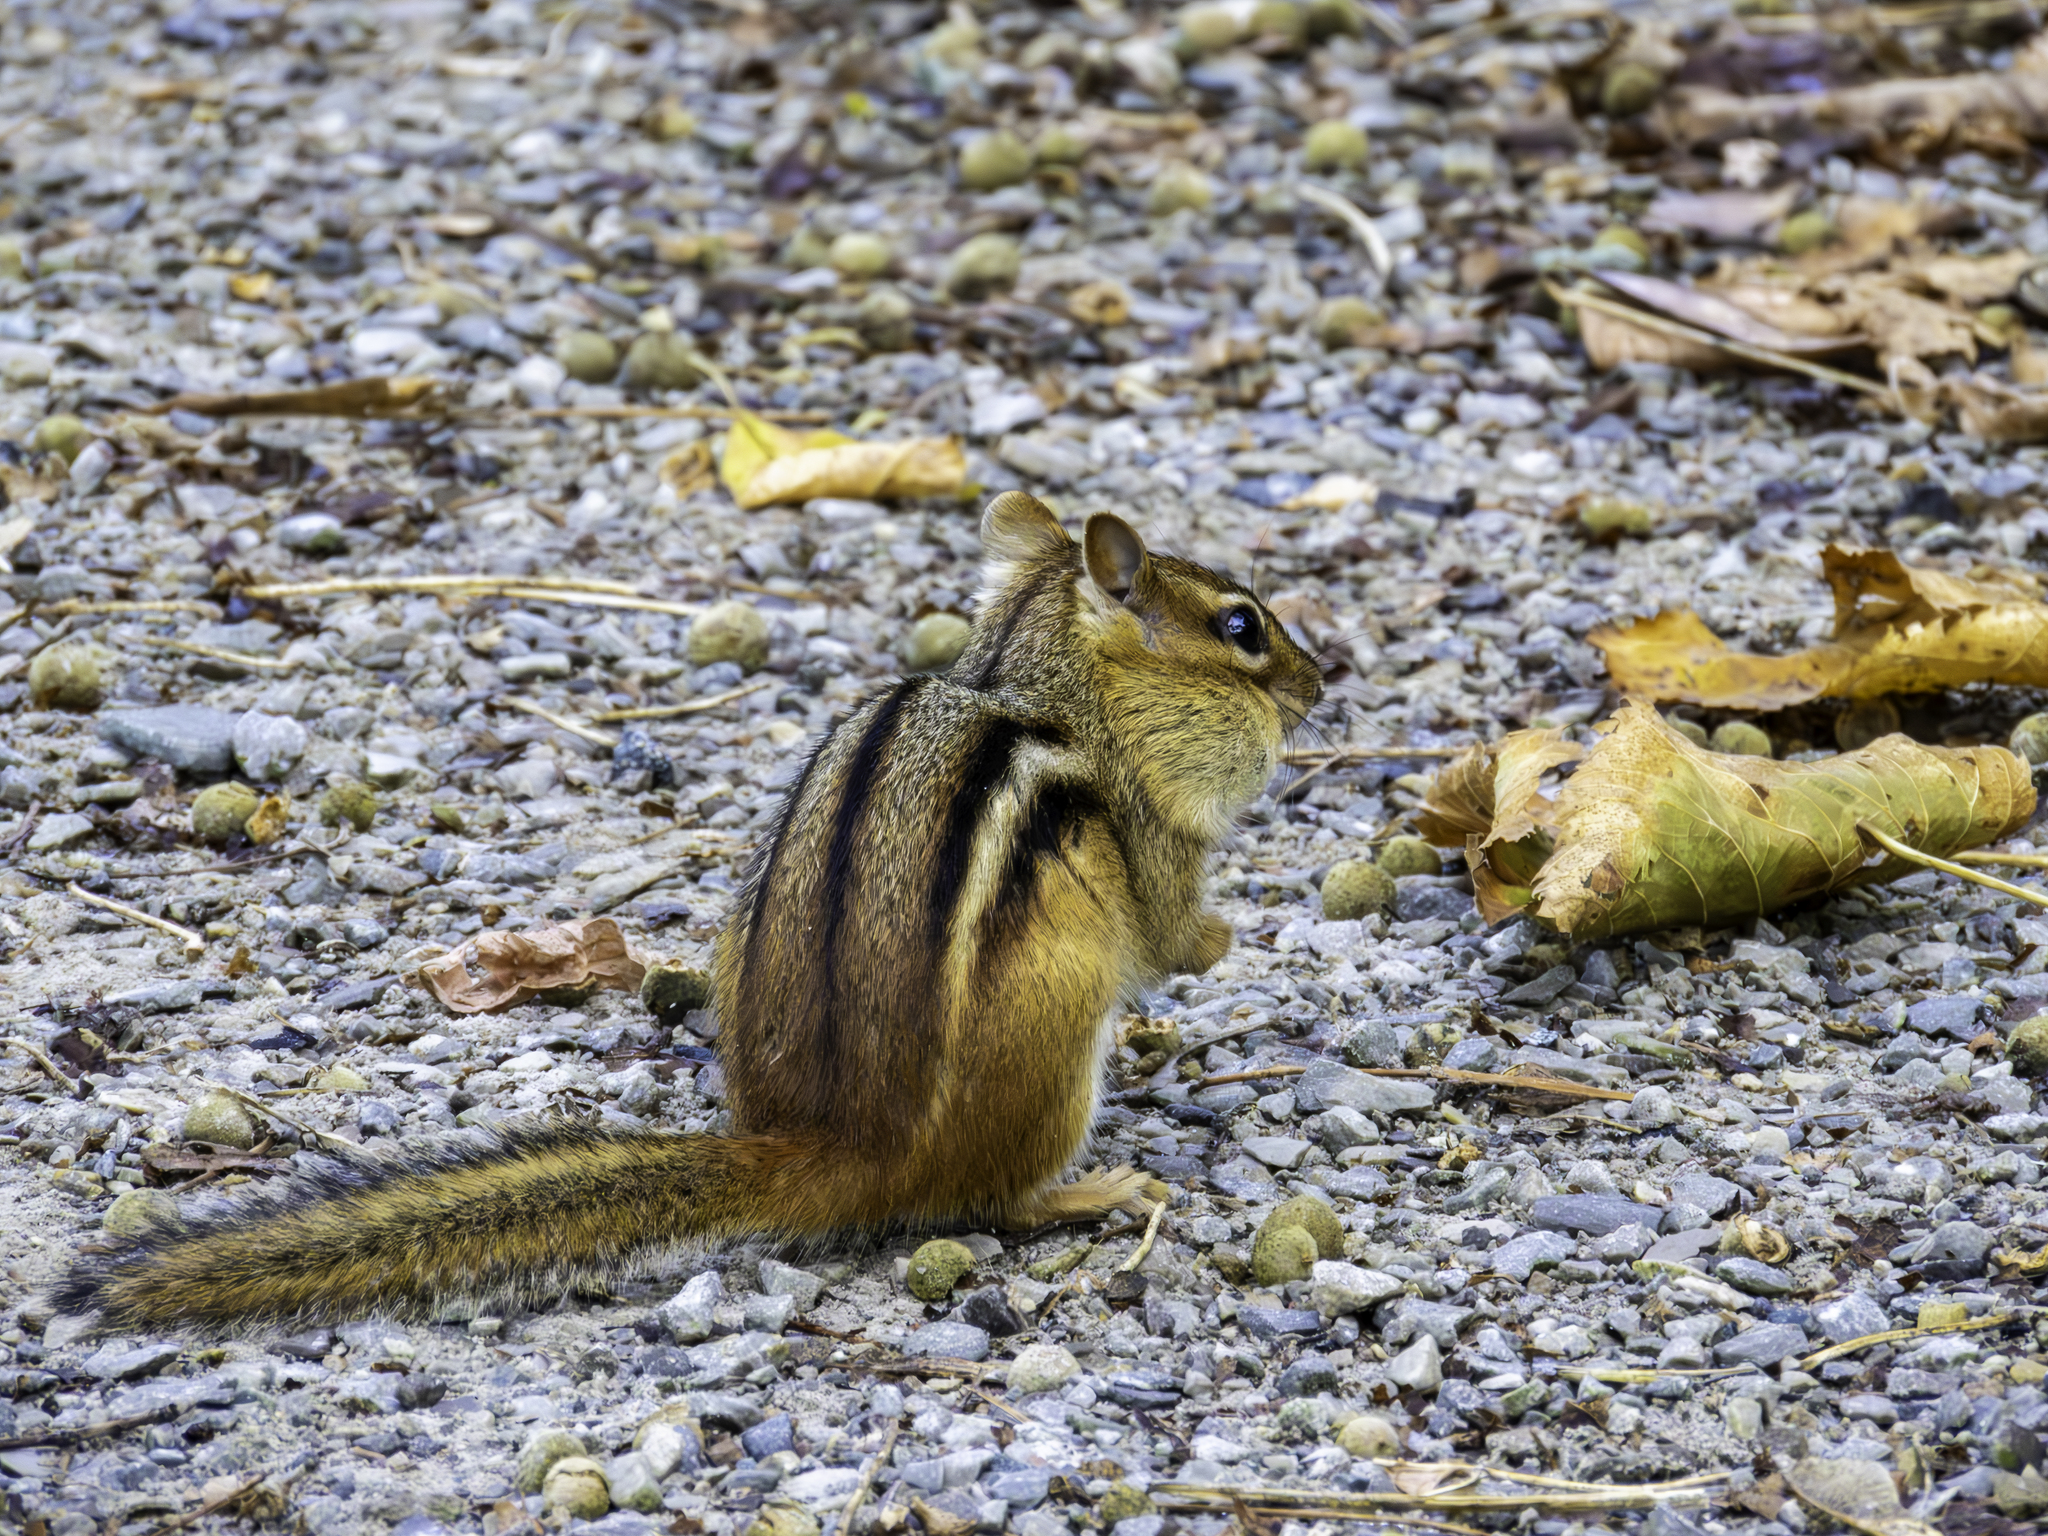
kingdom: Animalia
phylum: Chordata
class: Mammalia
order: Rodentia
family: Sciuridae
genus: Tamias
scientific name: Tamias striatus
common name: Eastern chipmunk
